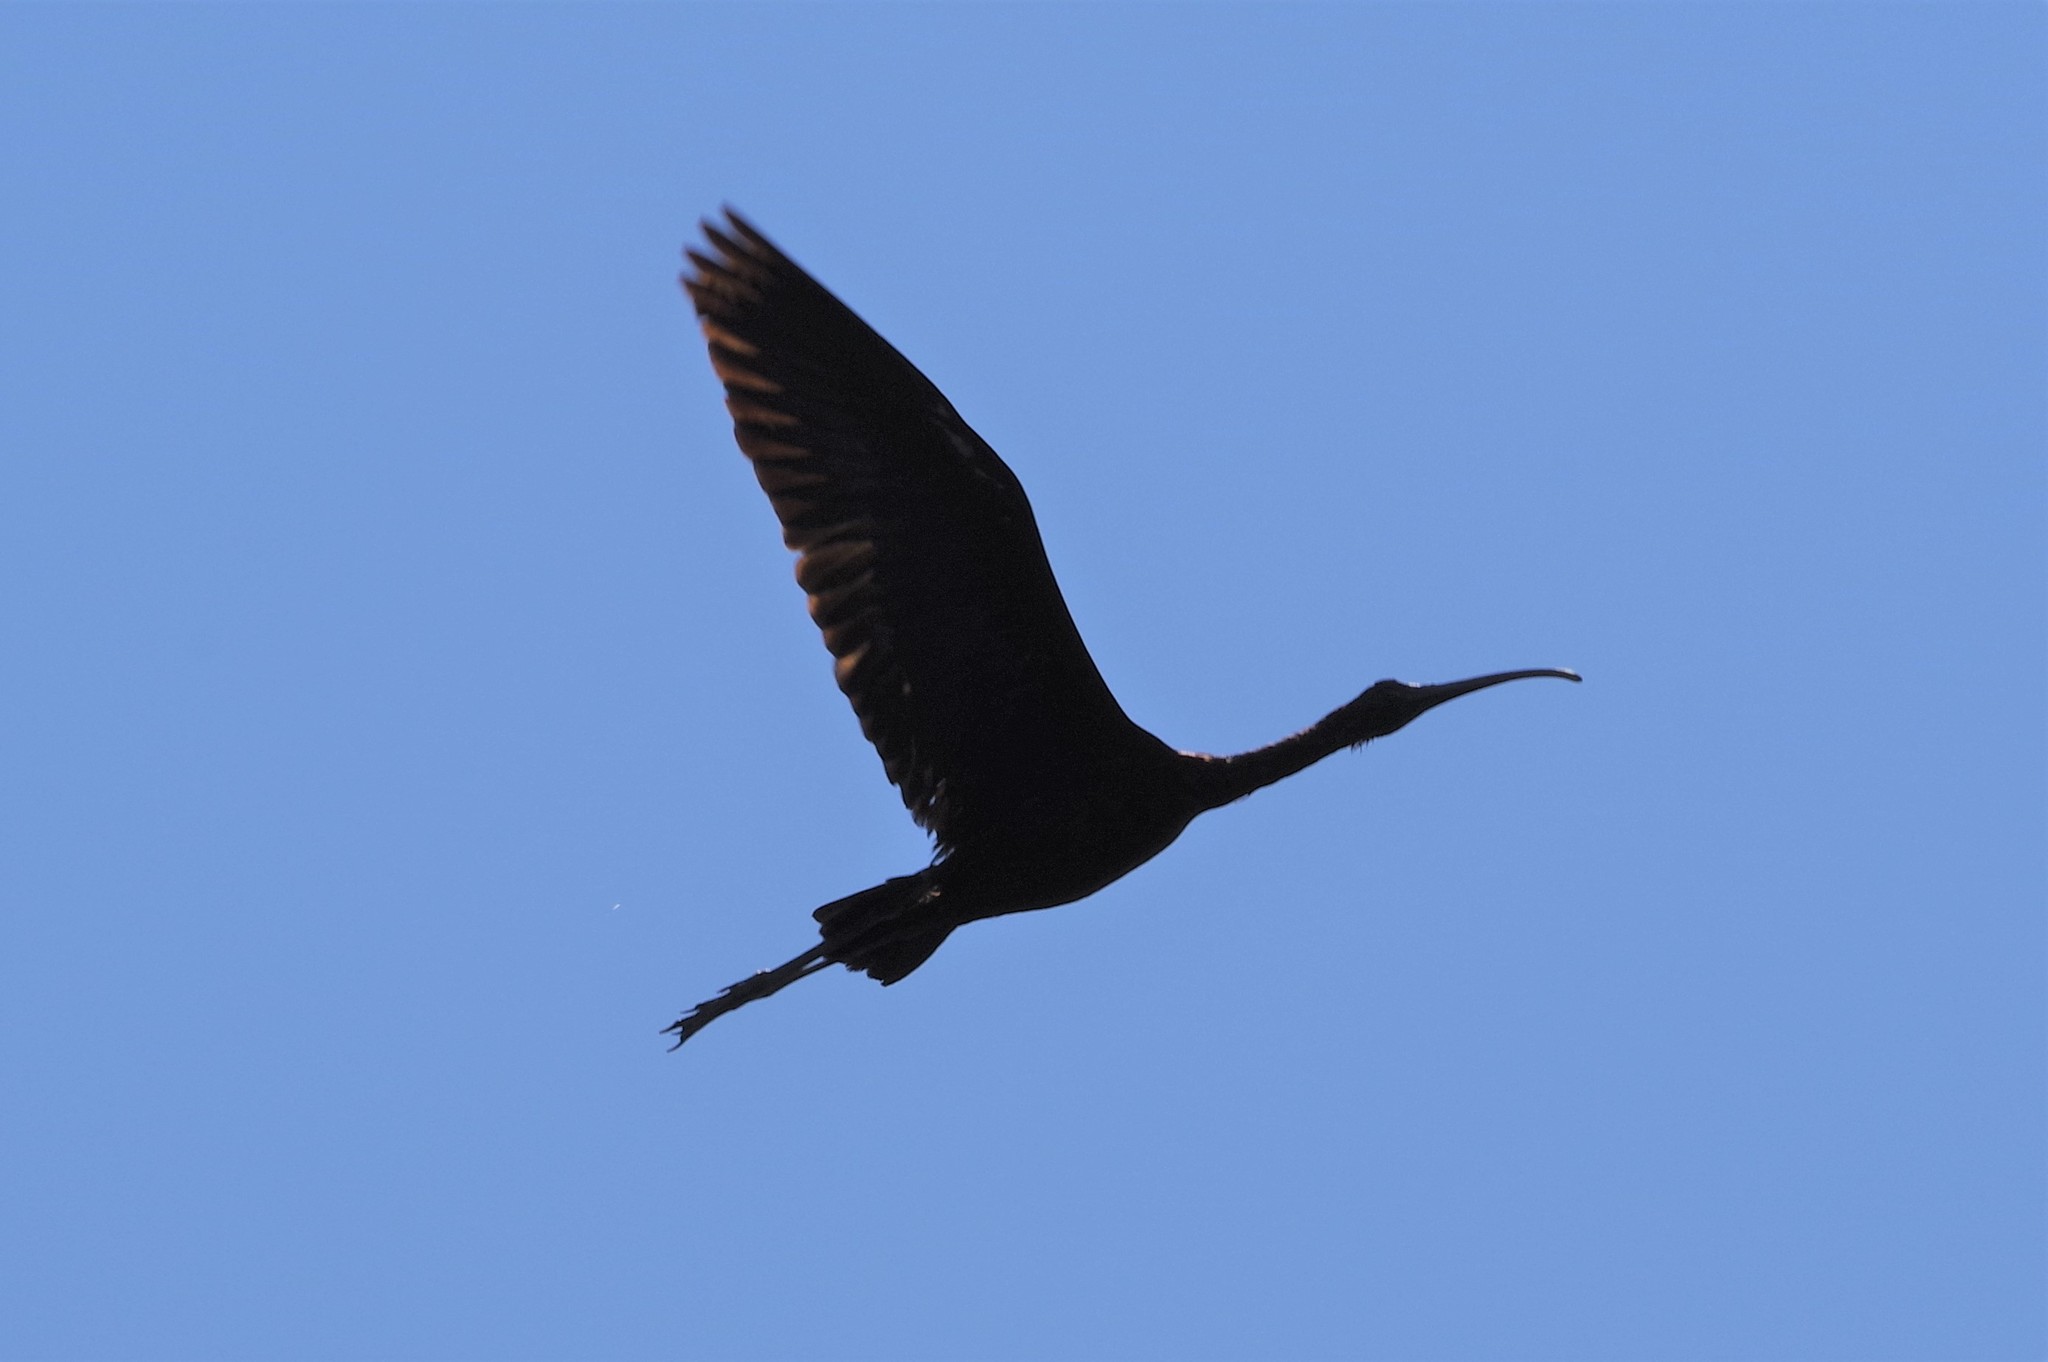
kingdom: Animalia
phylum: Chordata
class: Aves
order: Pelecaniformes
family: Threskiornithidae
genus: Plegadis
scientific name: Plegadis falcinellus
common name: Glossy ibis
